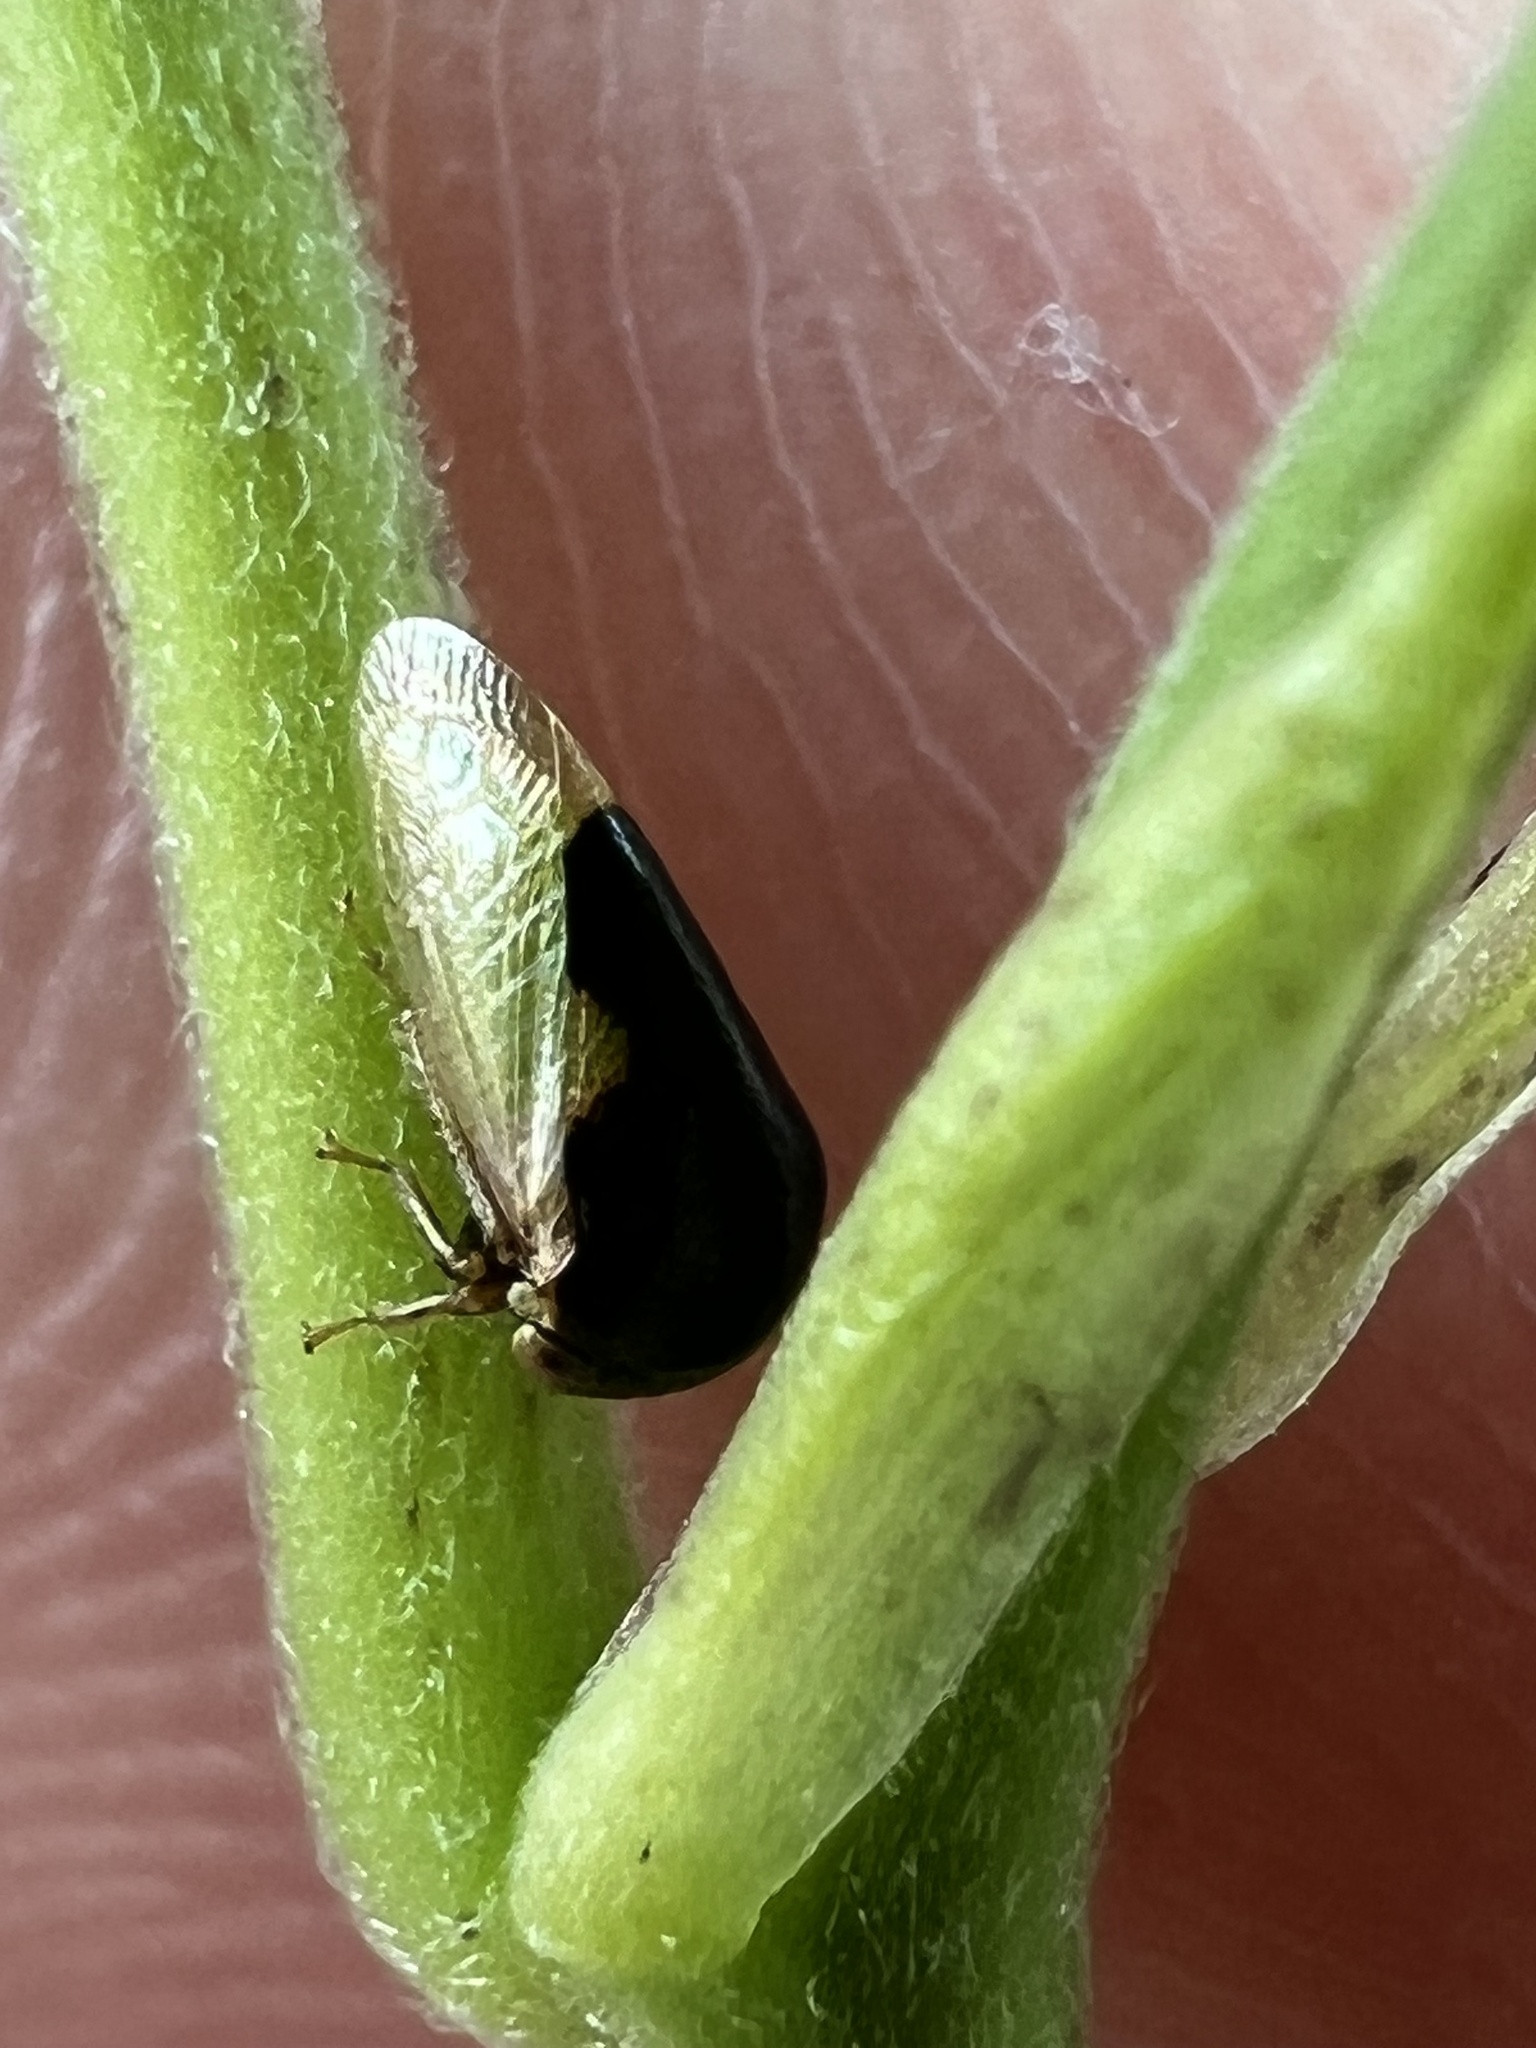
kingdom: Animalia
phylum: Arthropoda
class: Insecta
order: Hemiptera
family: Membracidae
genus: Micrutalis
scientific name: Micrutalis calva
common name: Honeylocust treehopper
